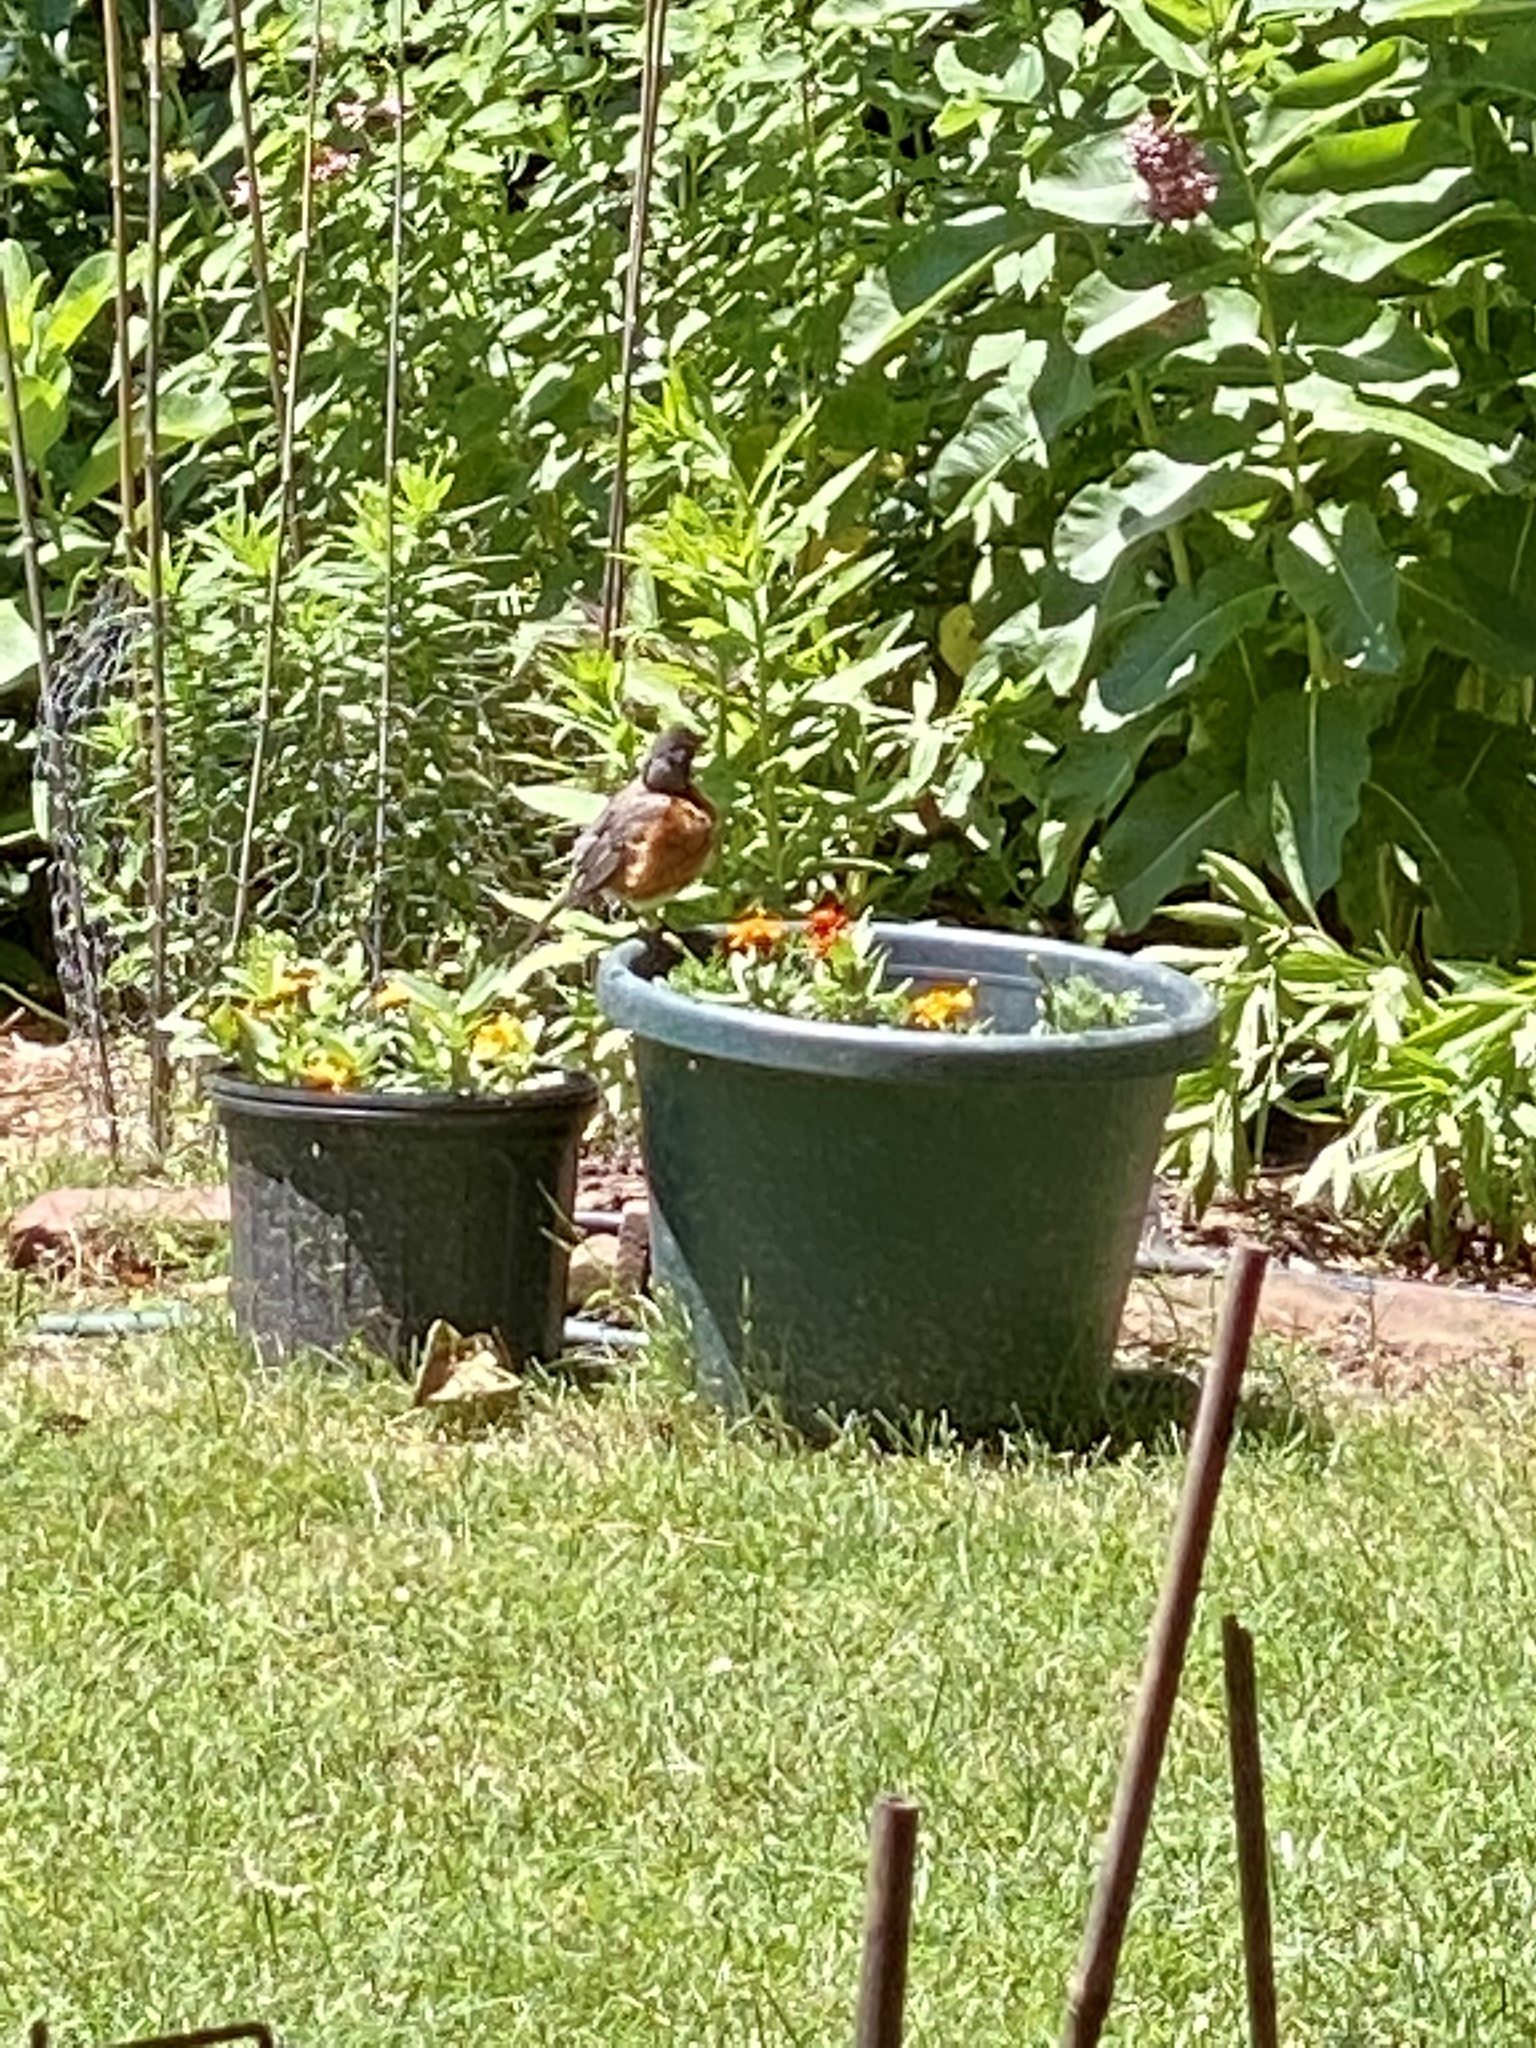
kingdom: Animalia
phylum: Chordata
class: Aves
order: Passeriformes
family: Turdidae
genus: Turdus
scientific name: Turdus migratorius
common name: American robin
